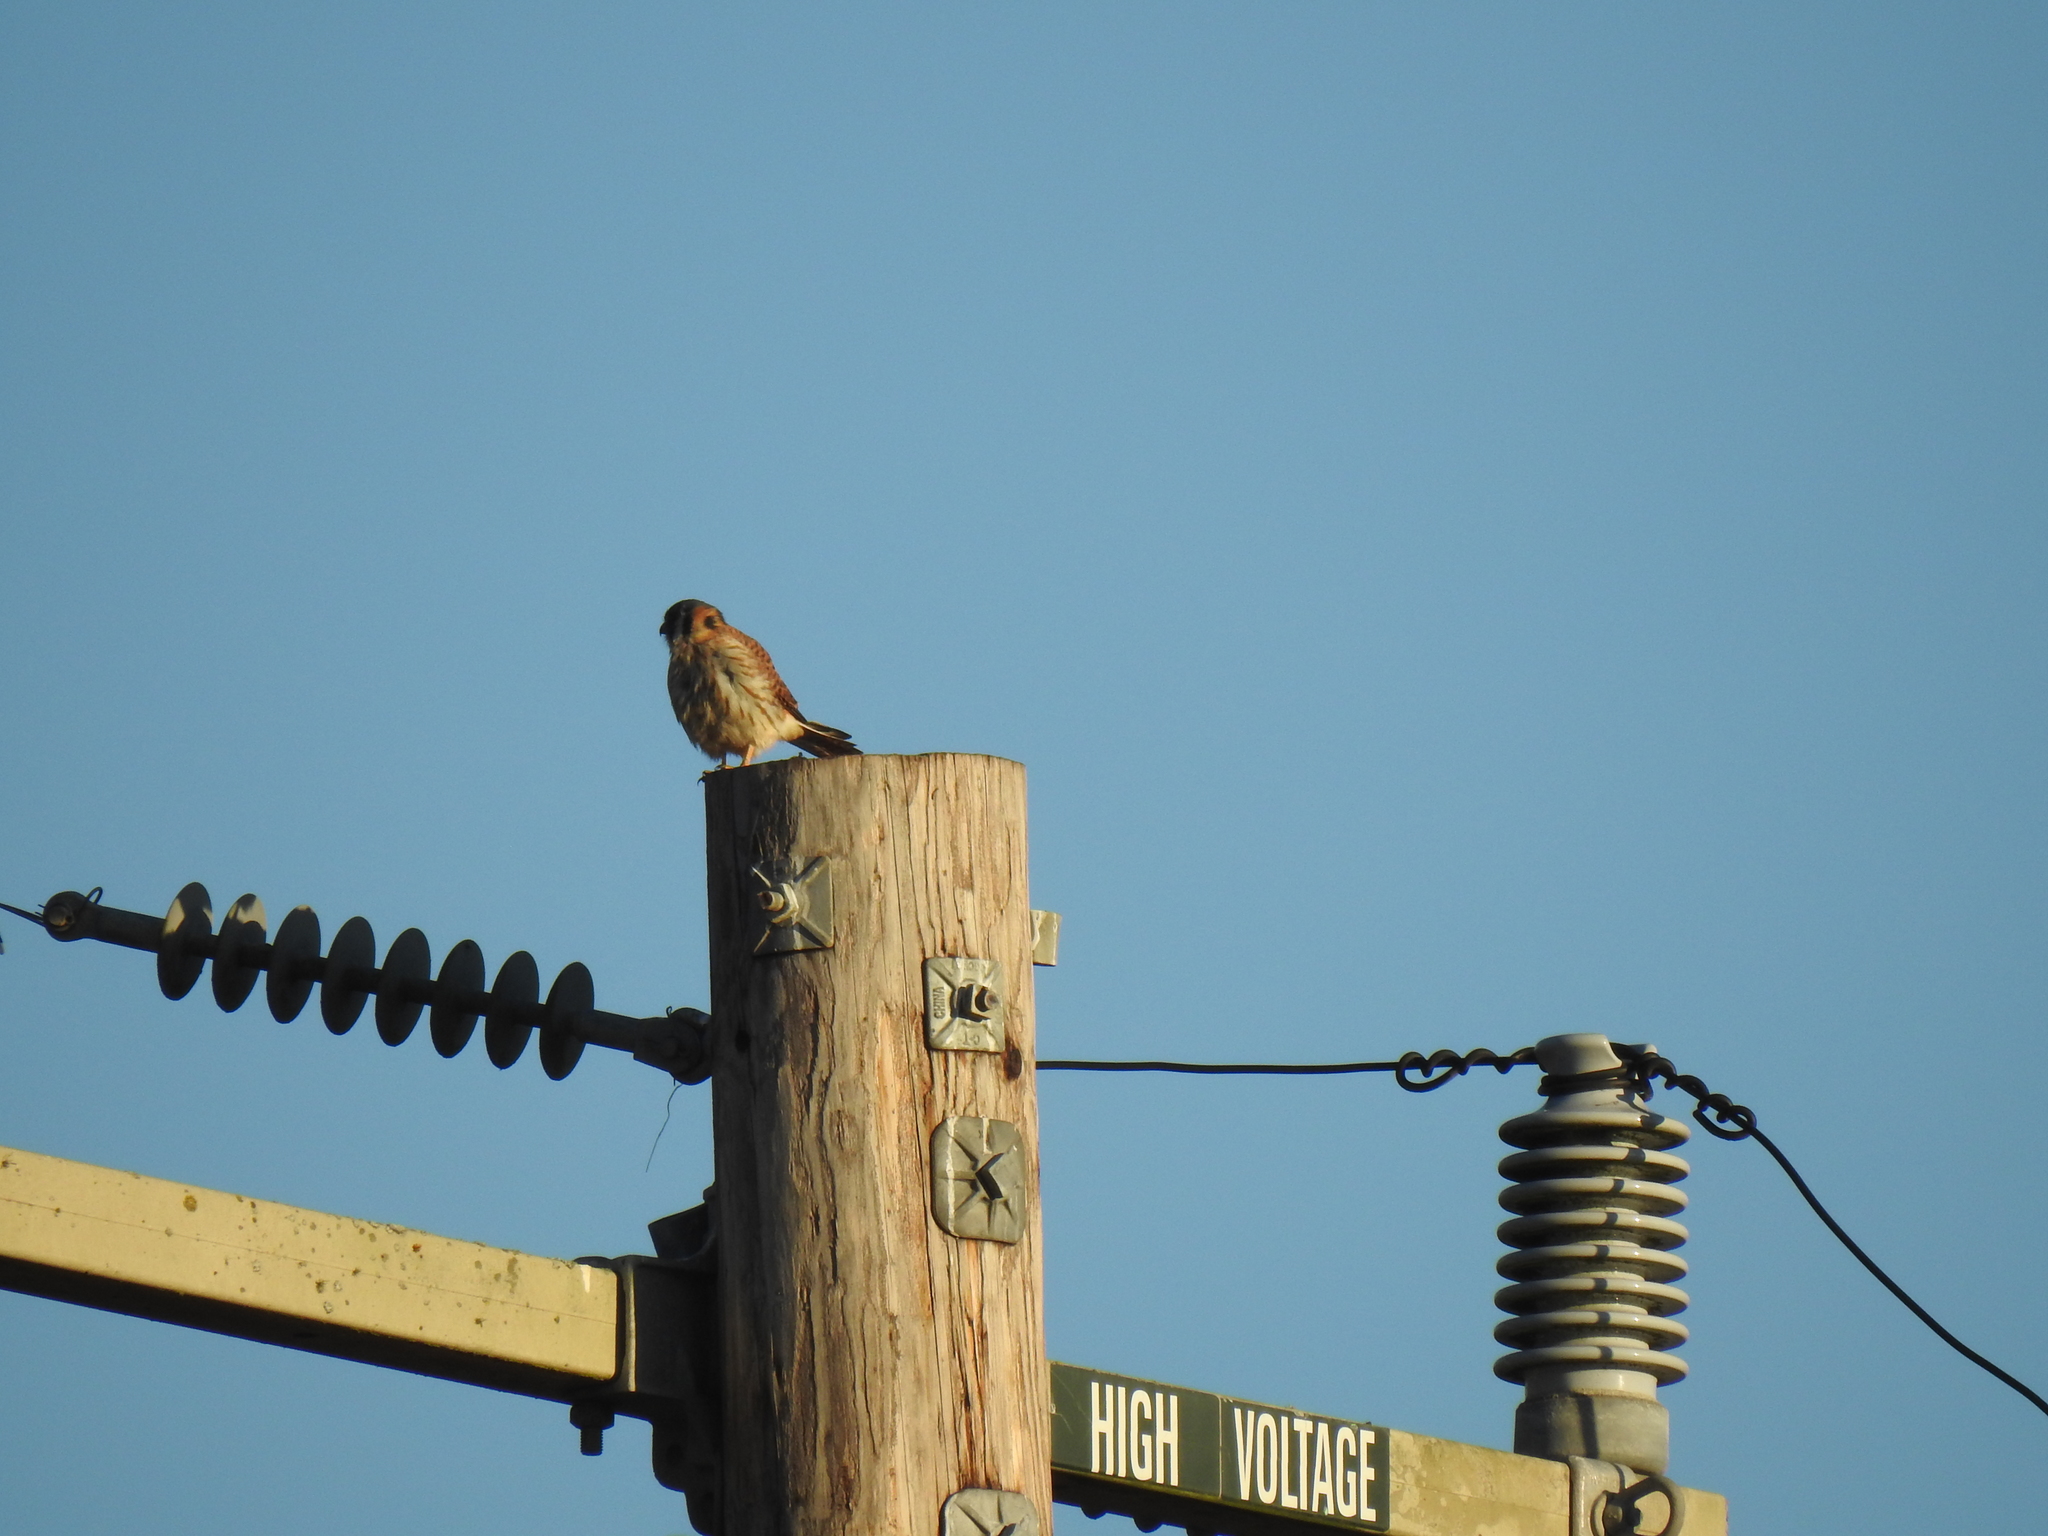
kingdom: Animalia
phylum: Chordata
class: Aves
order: Falconiformes
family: Falconidae
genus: Falco
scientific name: Falco sparverius
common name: American kestrel
